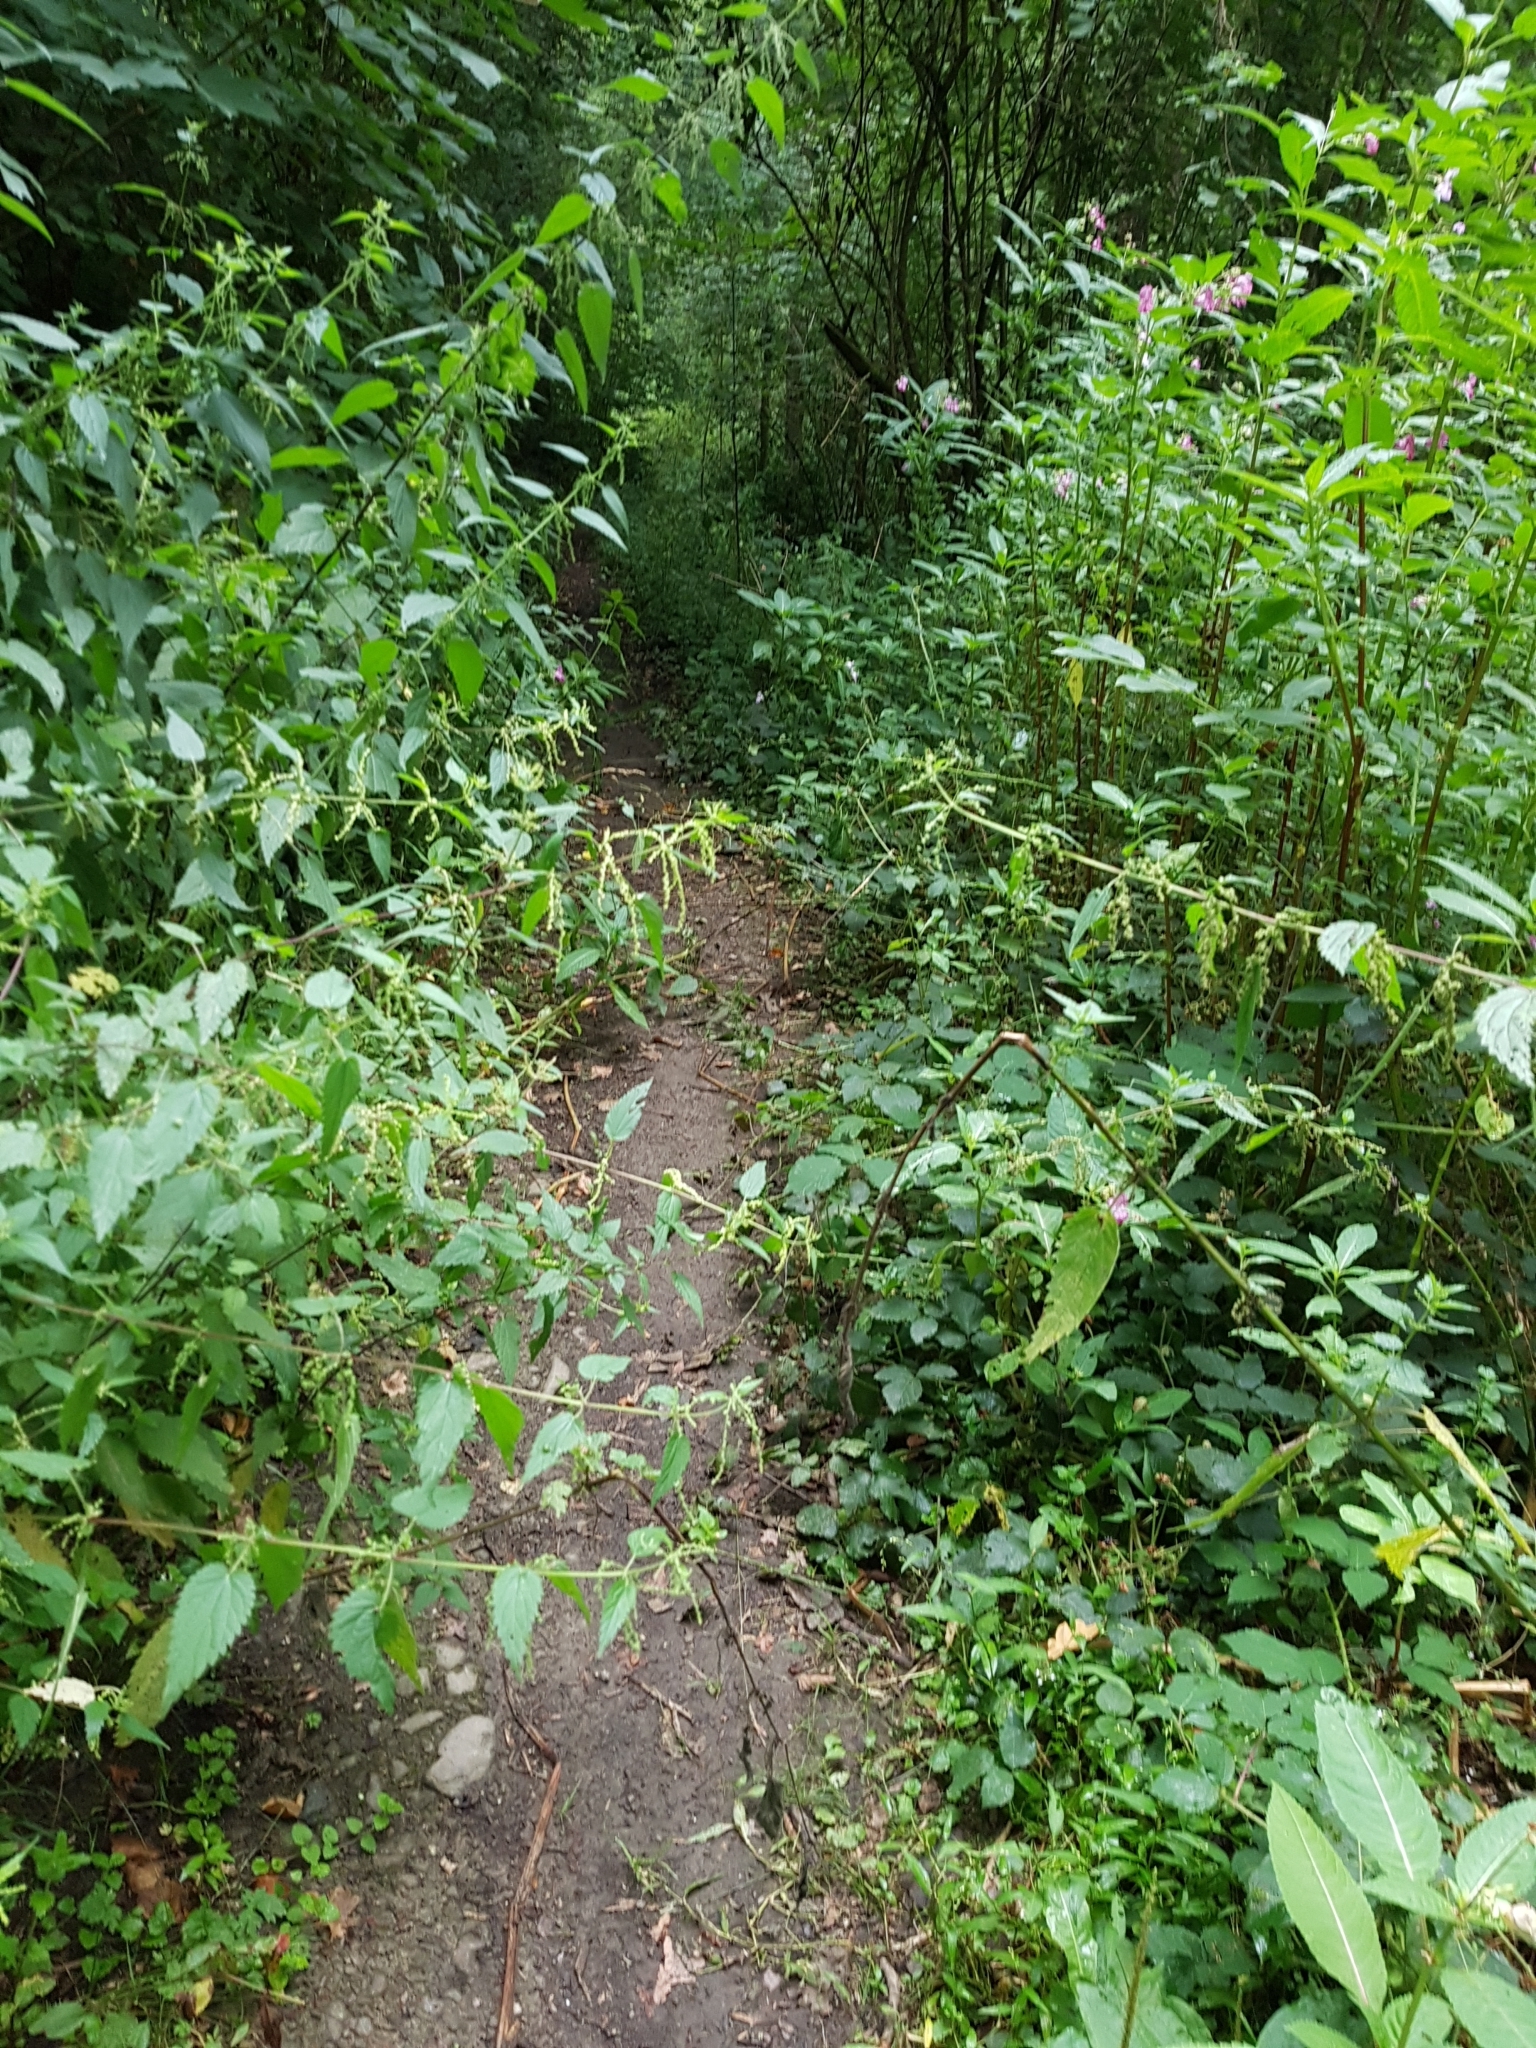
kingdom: Plantae
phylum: Tracheophyta
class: Magnoliopsida
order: Rosales
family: Urticaceae
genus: Urtica
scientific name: Urtica dioica
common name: Common nettle
